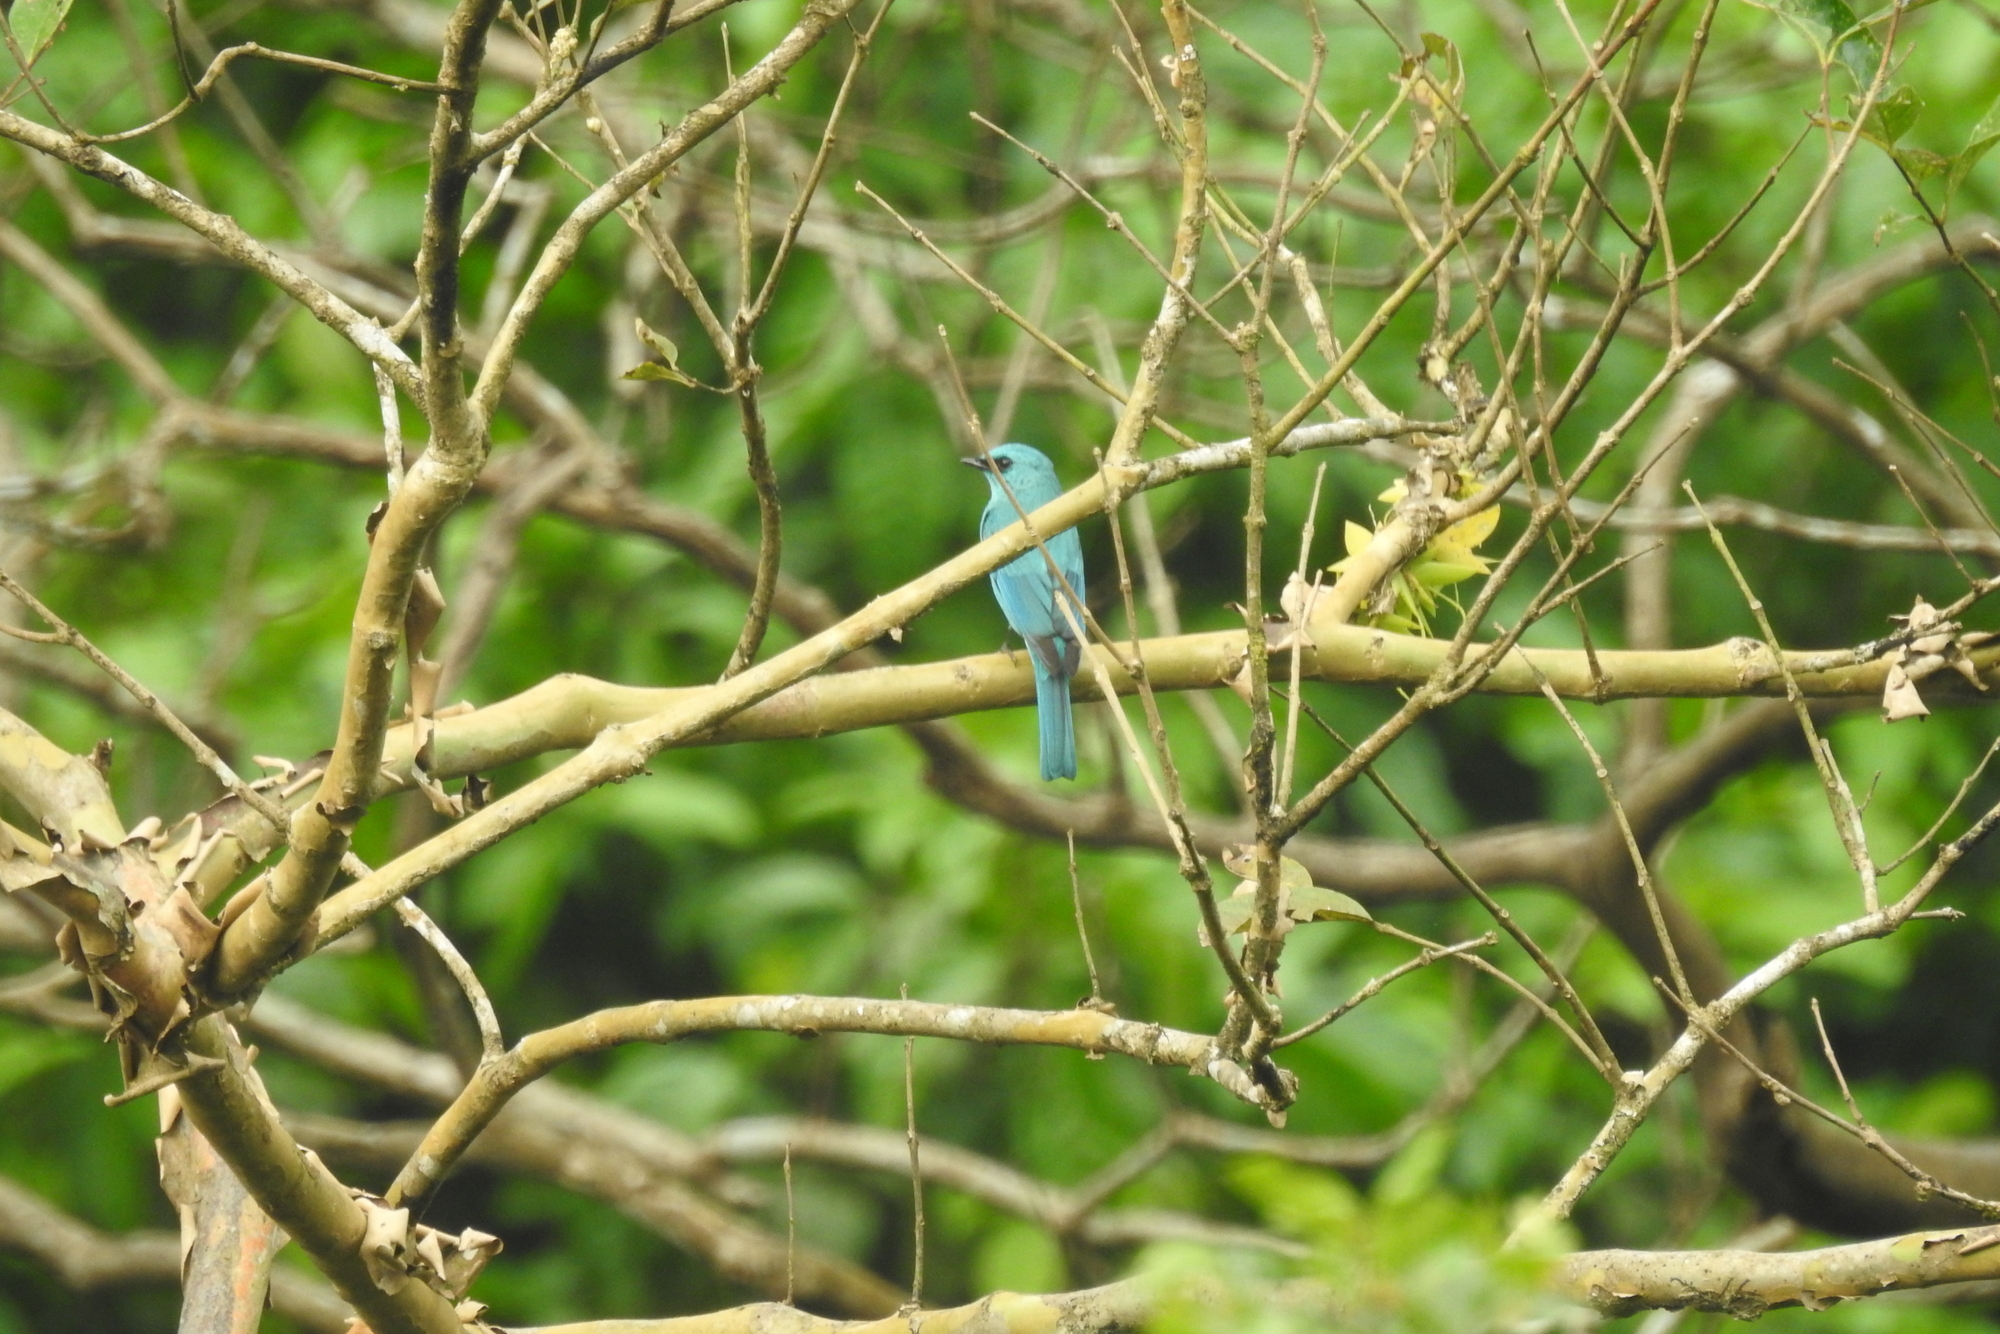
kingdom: Animalia
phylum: Chordata
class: Aves
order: Passeriformes
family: Muscicapidae
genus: Eumyias
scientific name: Eumyias thalassinus
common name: Verditer flycatcher
